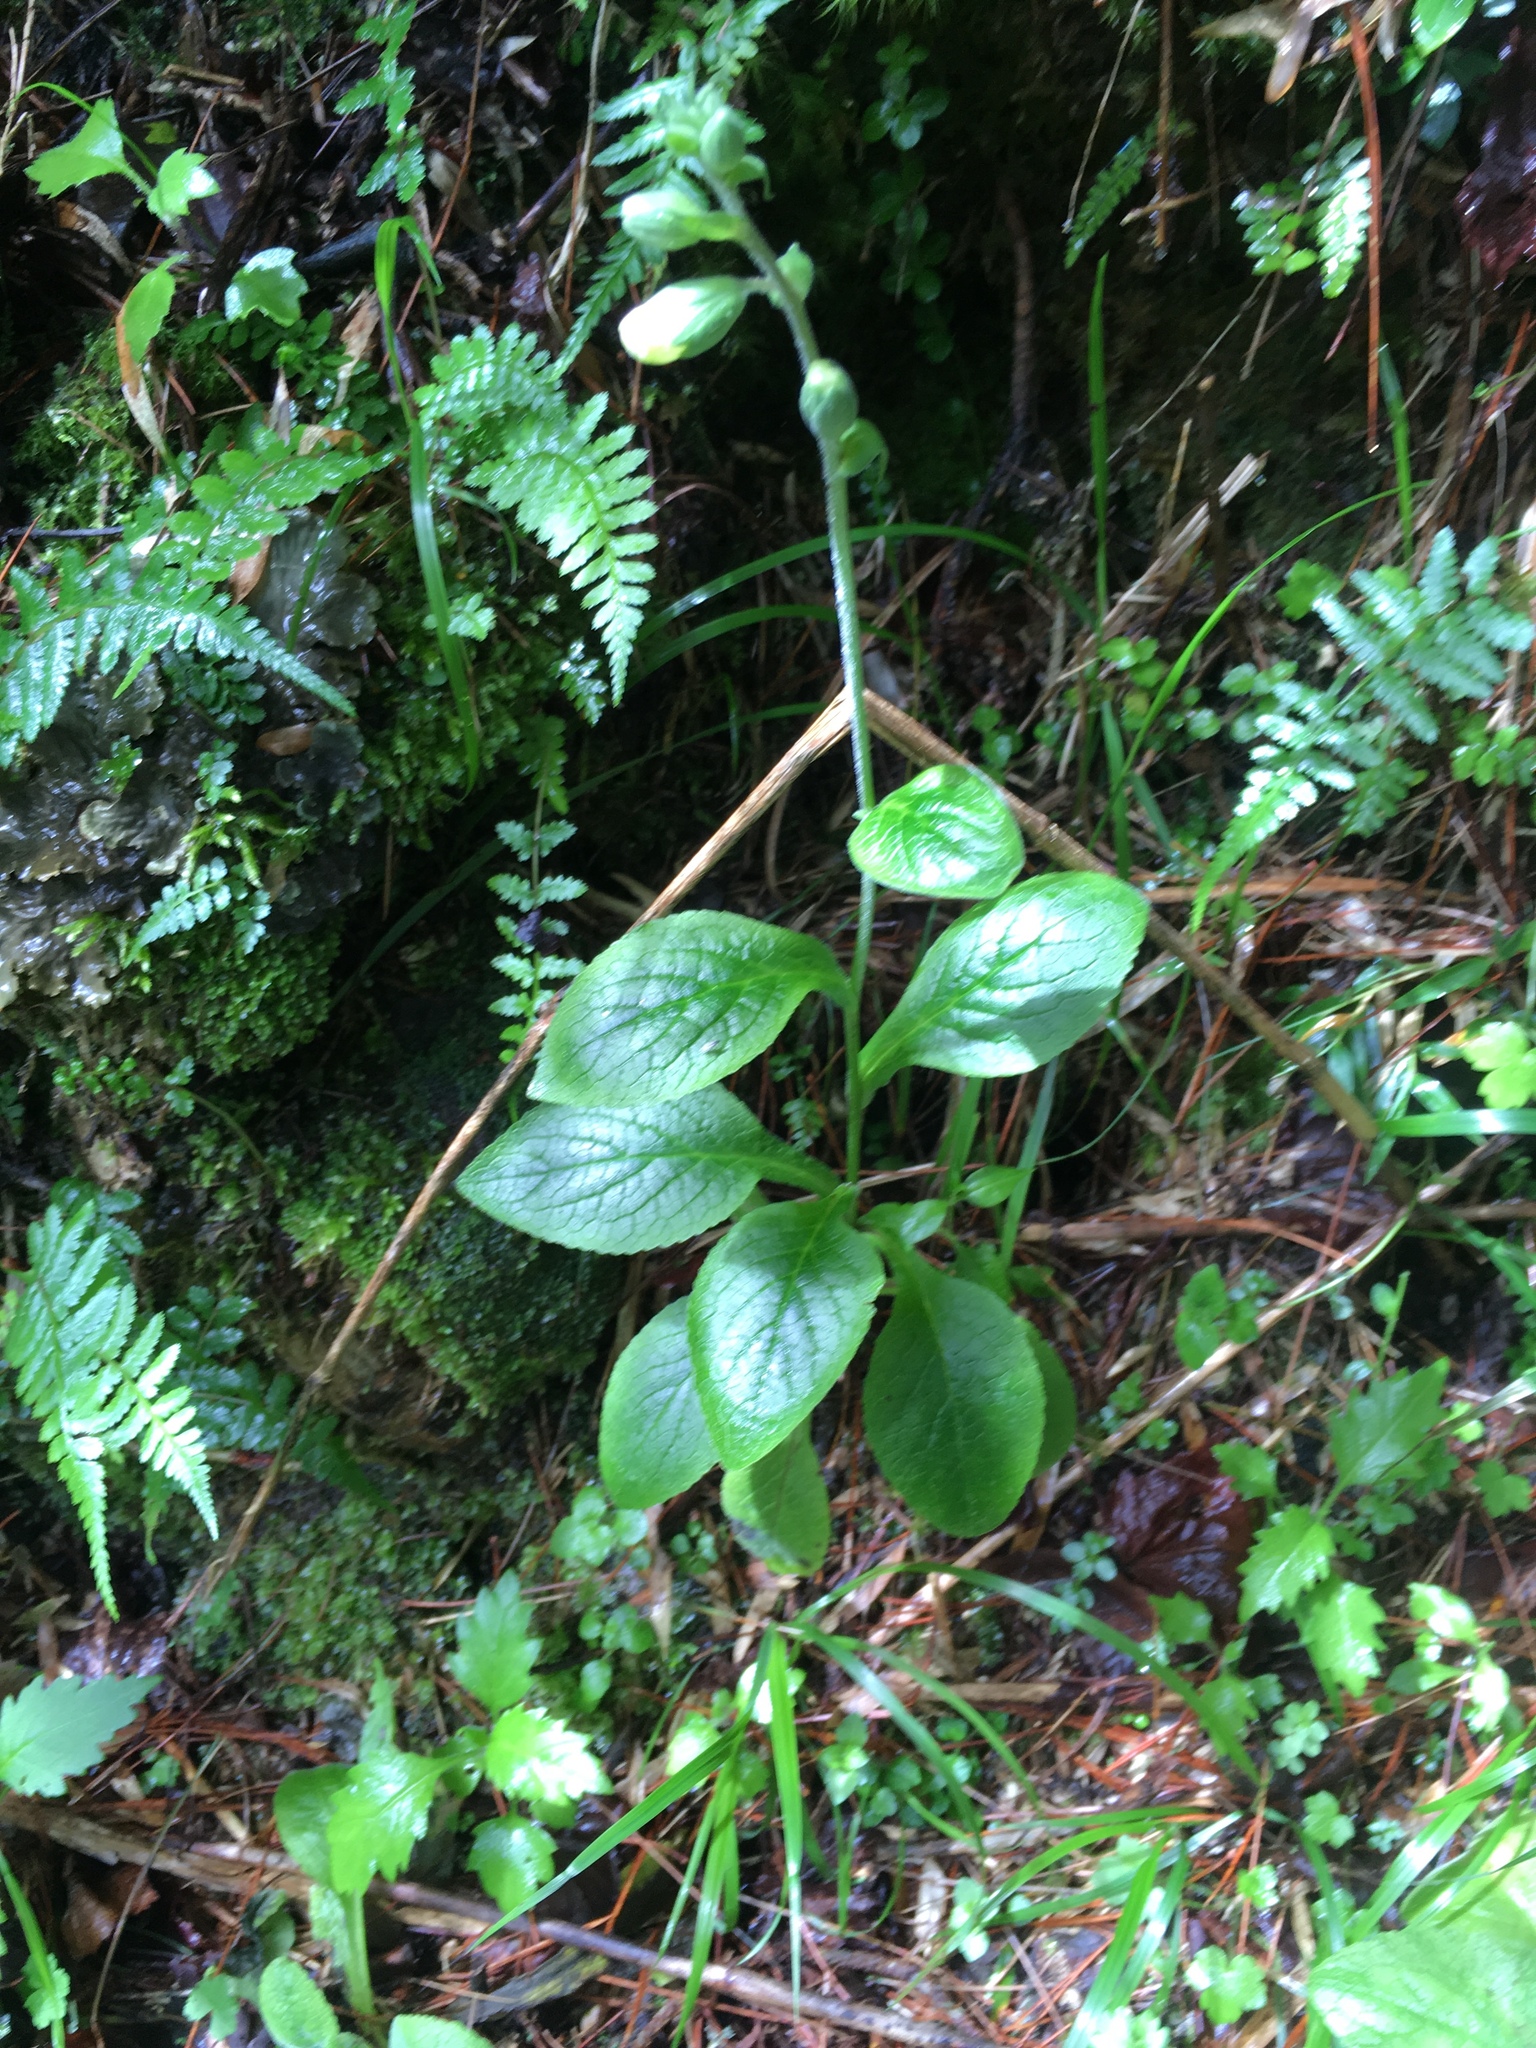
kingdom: Plantae
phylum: Tracheophyta
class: Magnoliopsida
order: Lamiales
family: Plantaginaceae
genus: Digitalis
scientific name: Digitalis purpurea
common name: Foxglove
